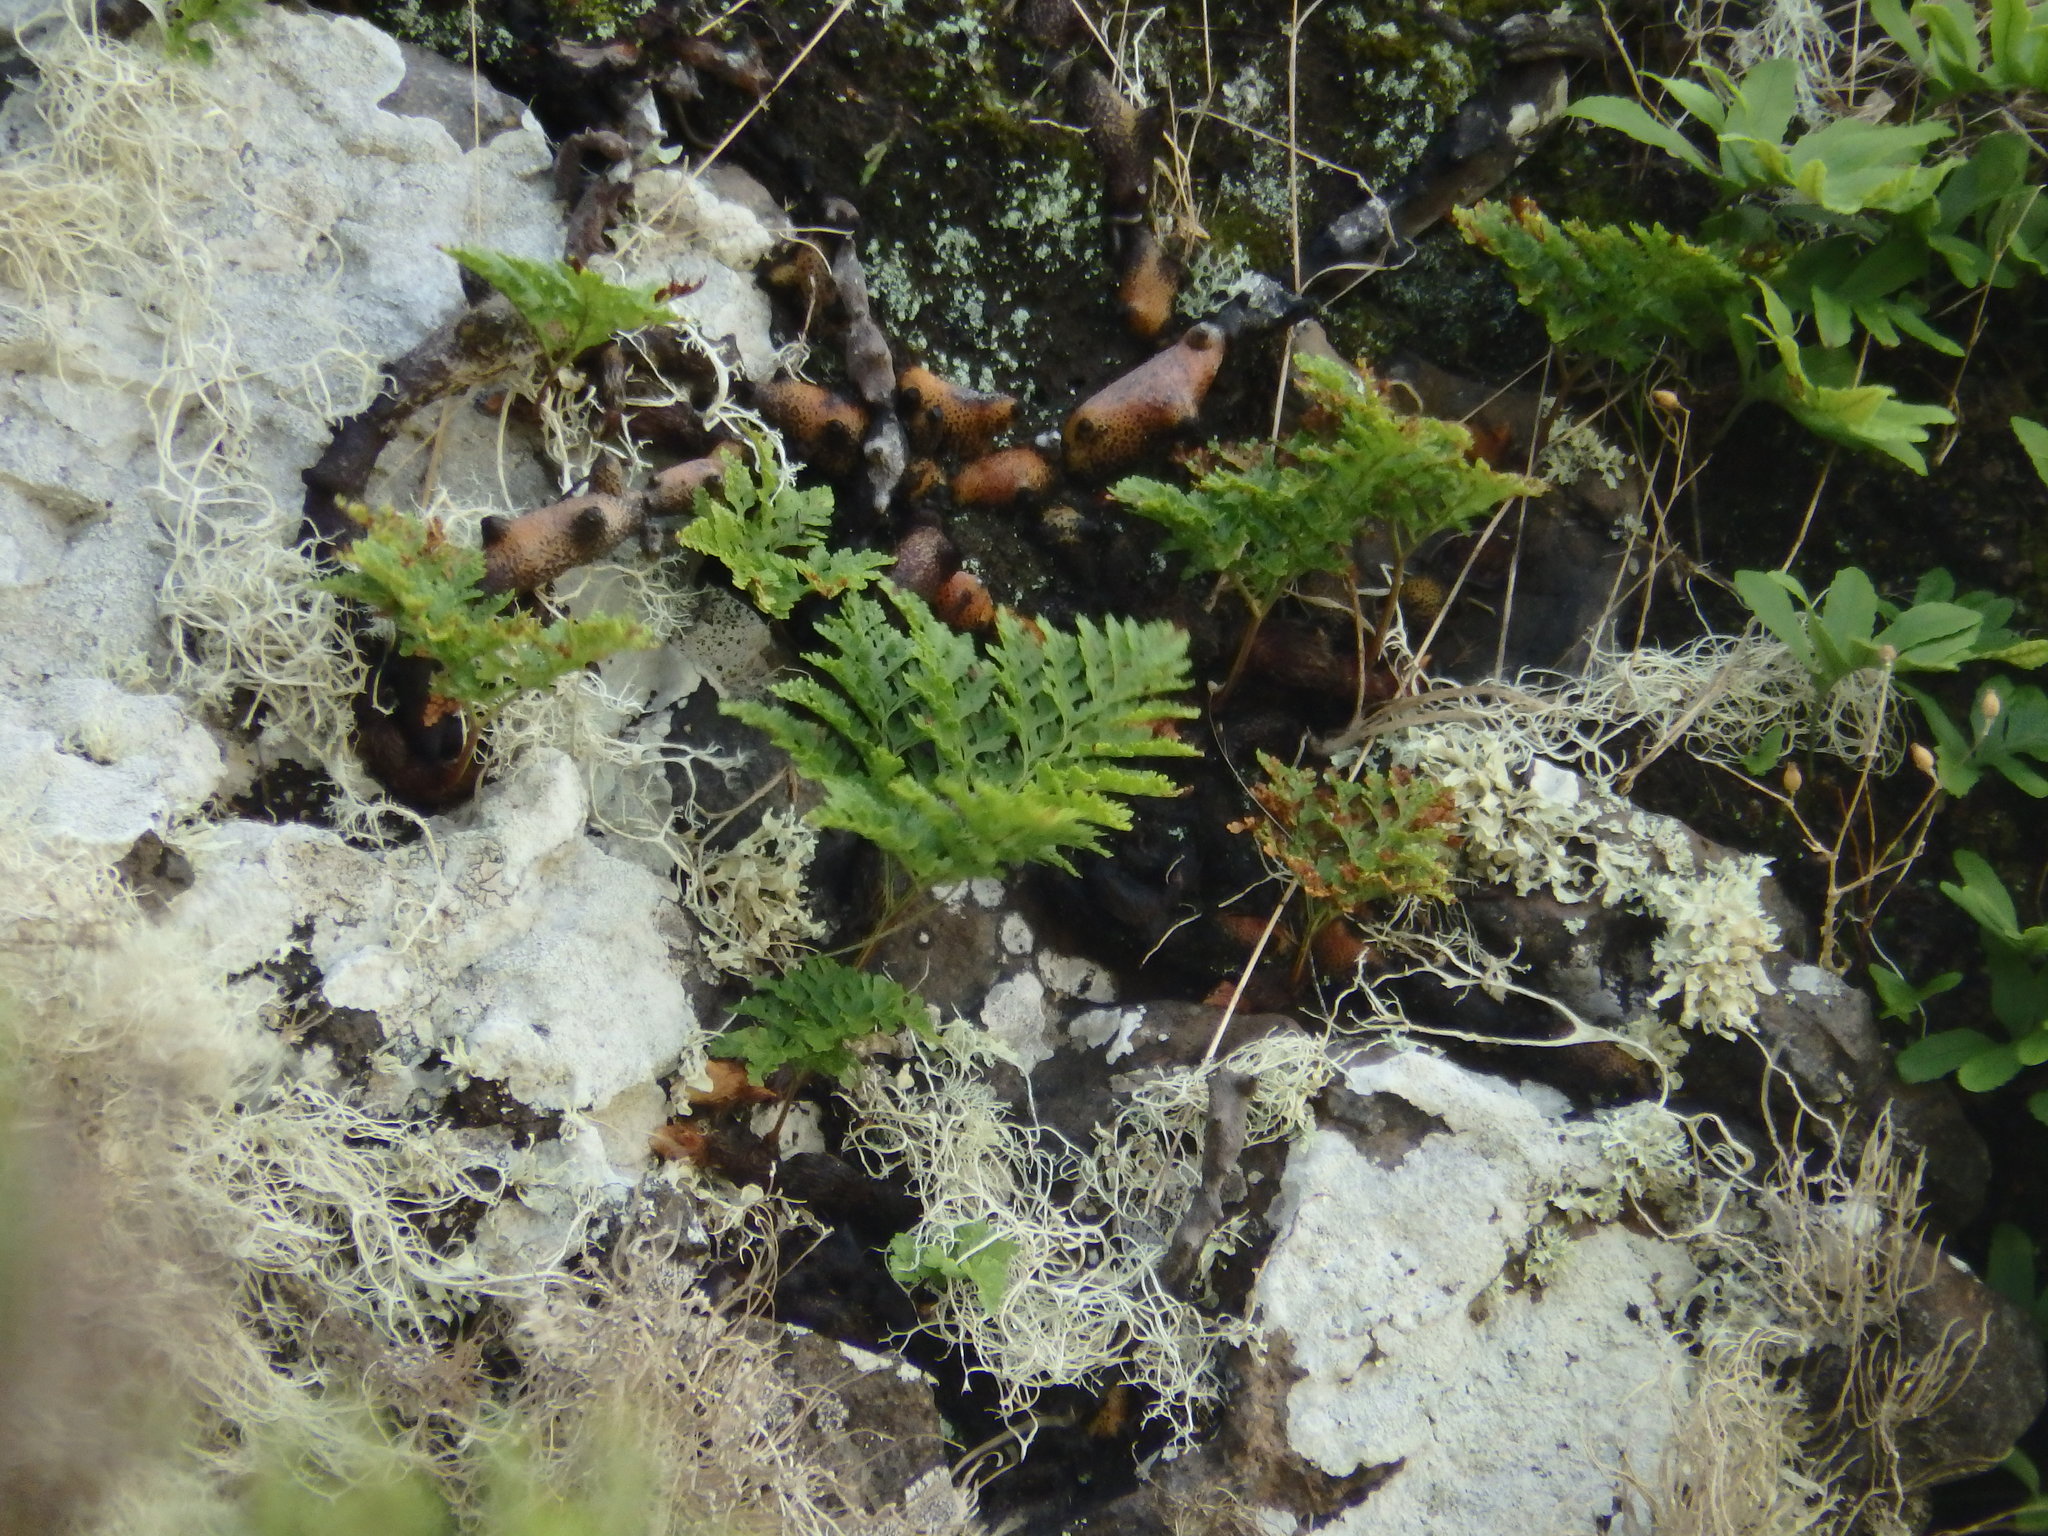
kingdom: Plantae
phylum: Tracheophyta
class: Polypodiopsida
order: Polypodiales
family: Davalliaceae
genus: Davallia
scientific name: Davallia canariensis
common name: Hare's-foot fern
